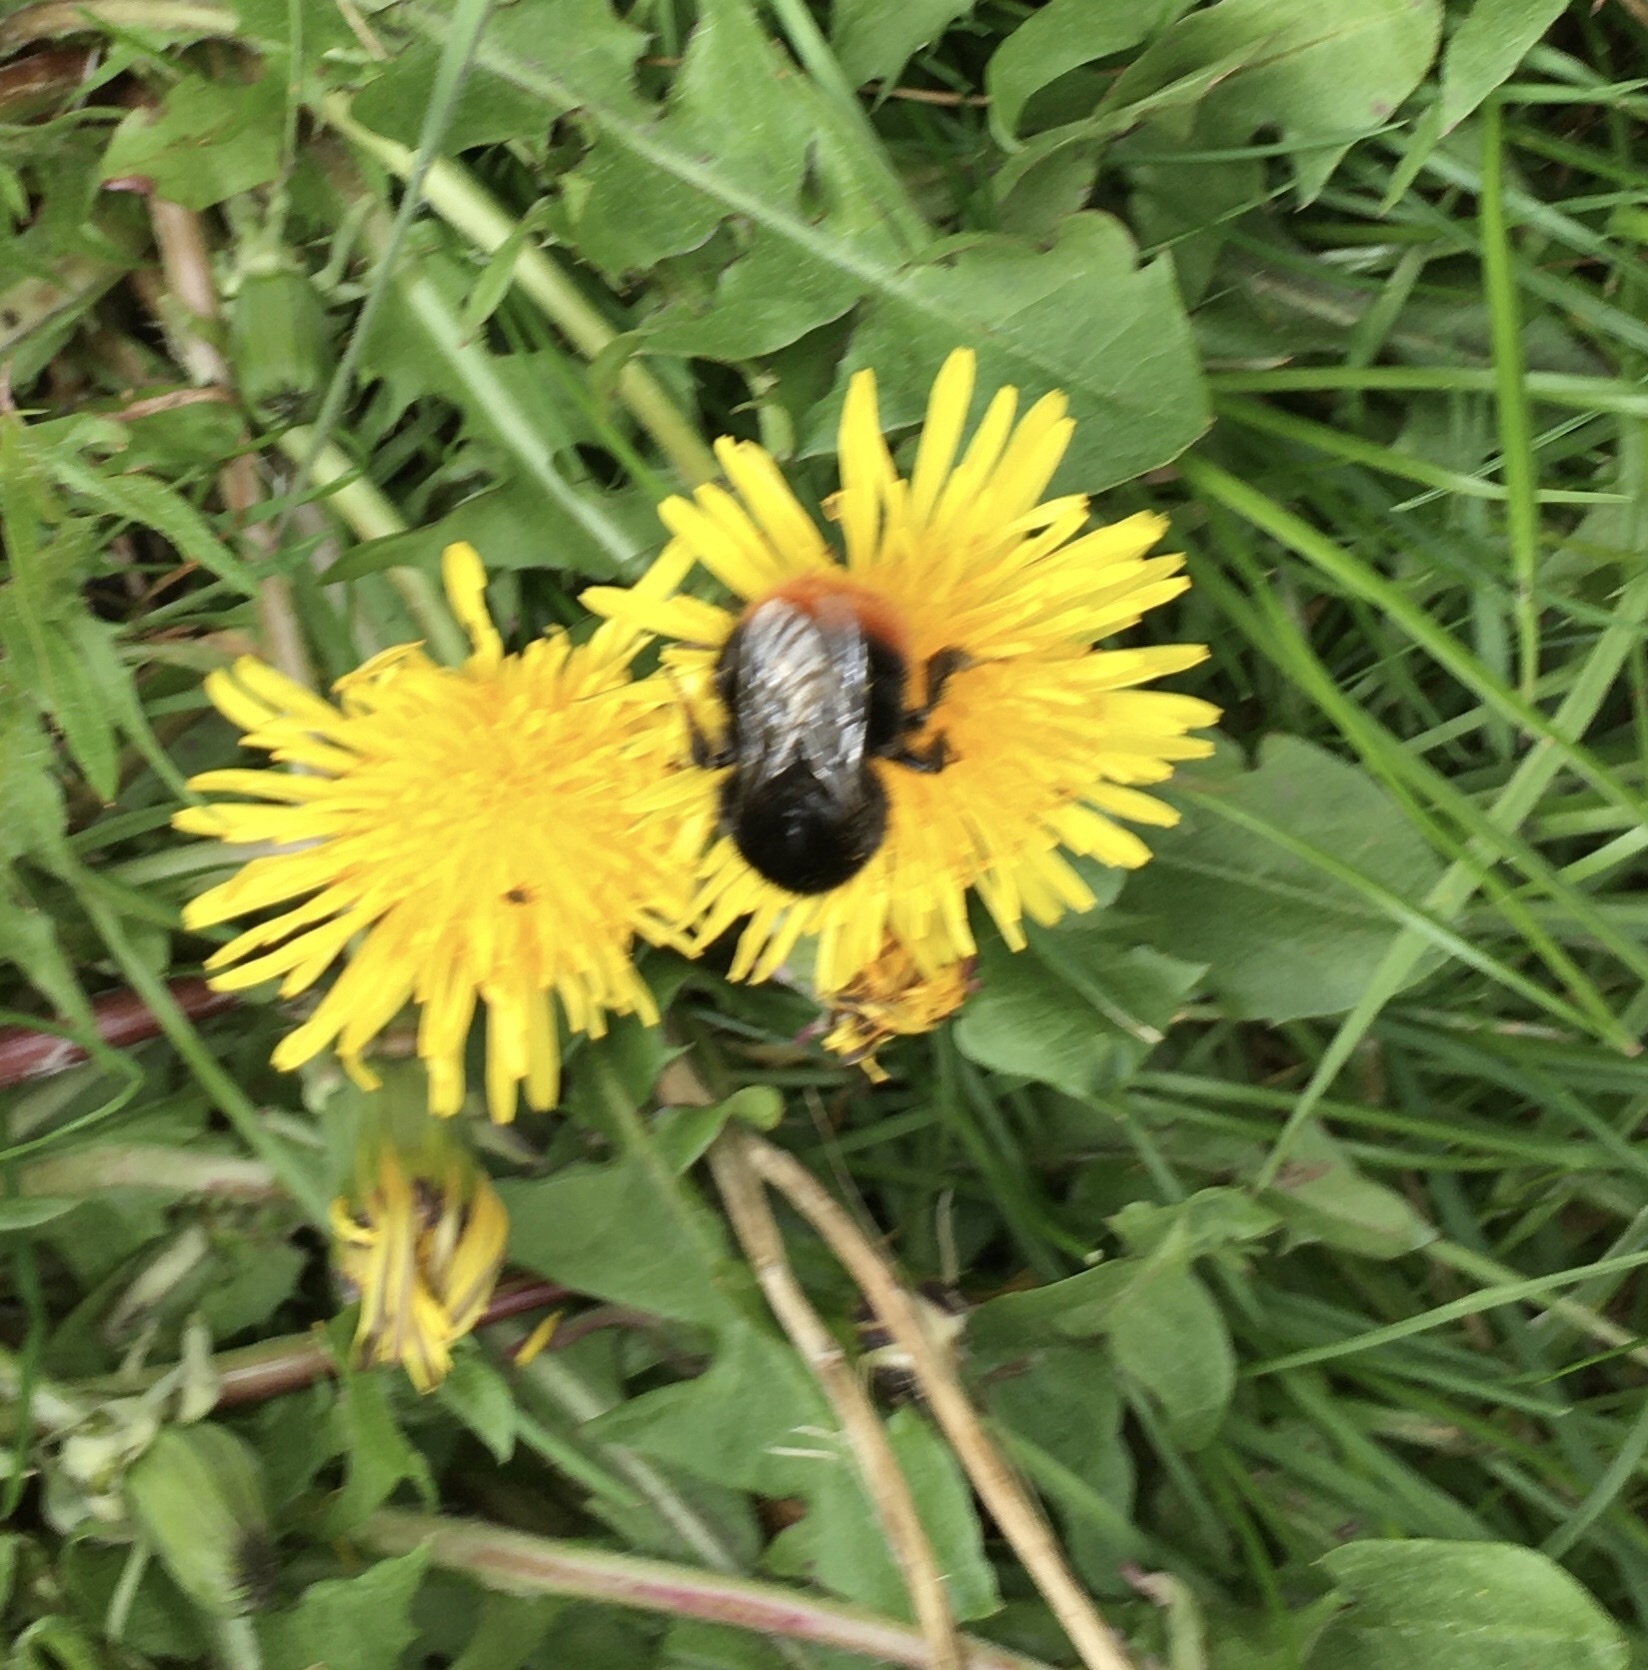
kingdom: Animalia
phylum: Arthropoda
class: Insecta
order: Hymenoptera
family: Apidae
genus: Bombus
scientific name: Bombus lapidarius
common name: Large red-tailed humble-bee
